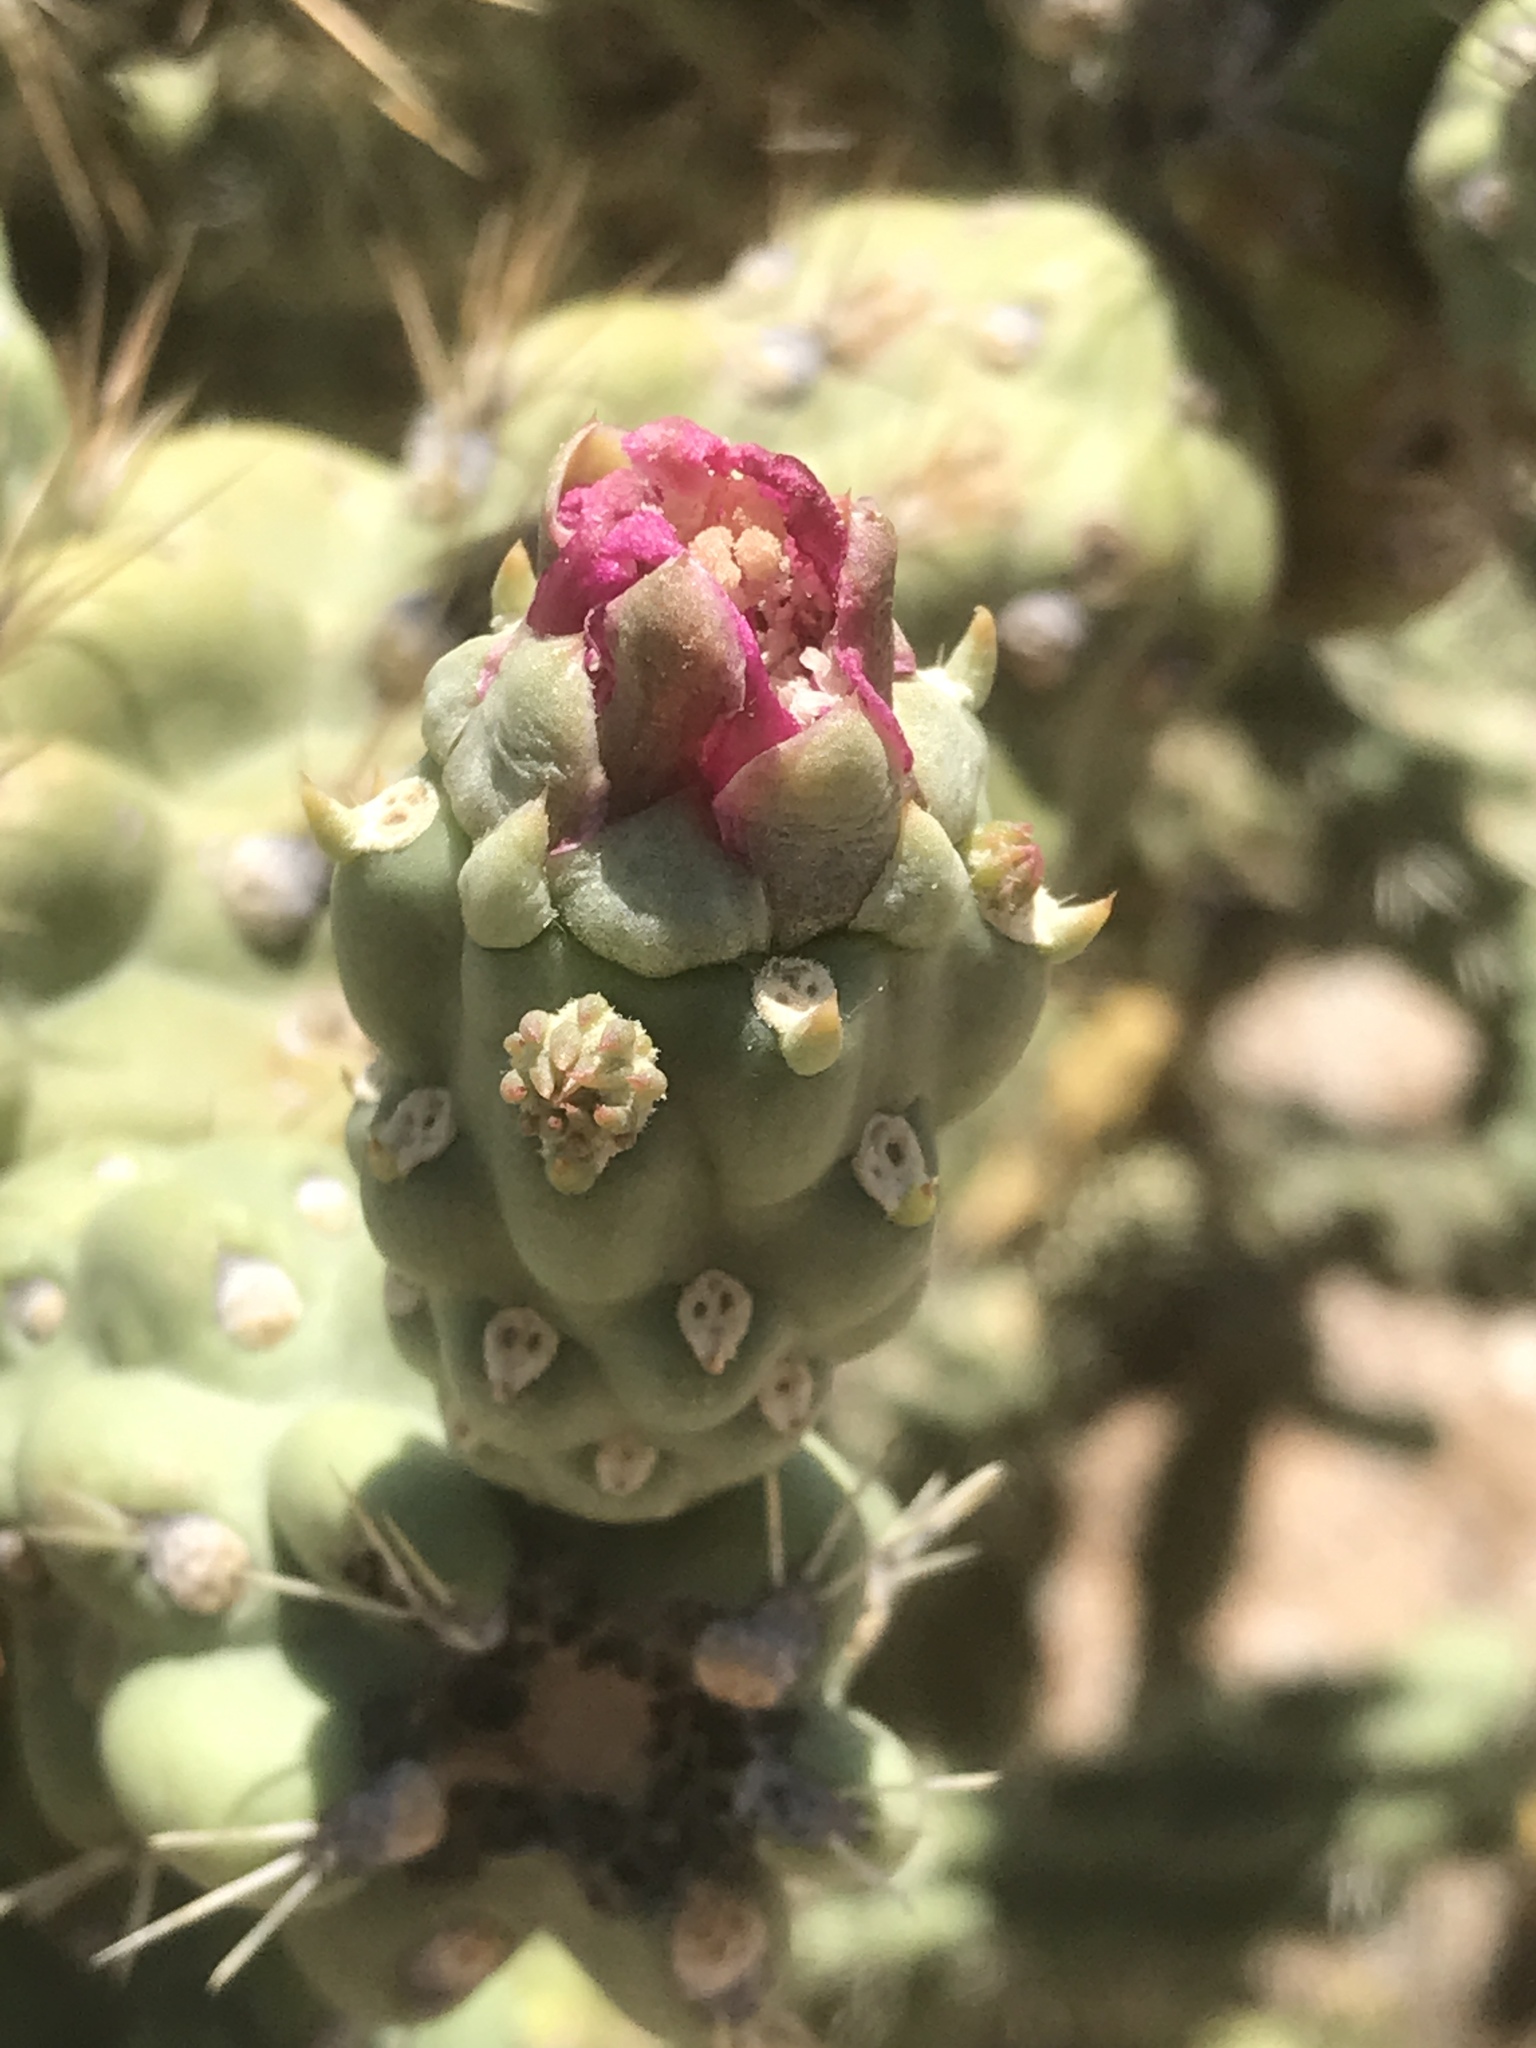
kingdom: Plantae
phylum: Tracheophyta
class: Magnoliopsida
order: Caryophyllales
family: Cactaceae
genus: Cylindropuntia
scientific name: Cylindropuntia fulgida
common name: Jumping cholla
